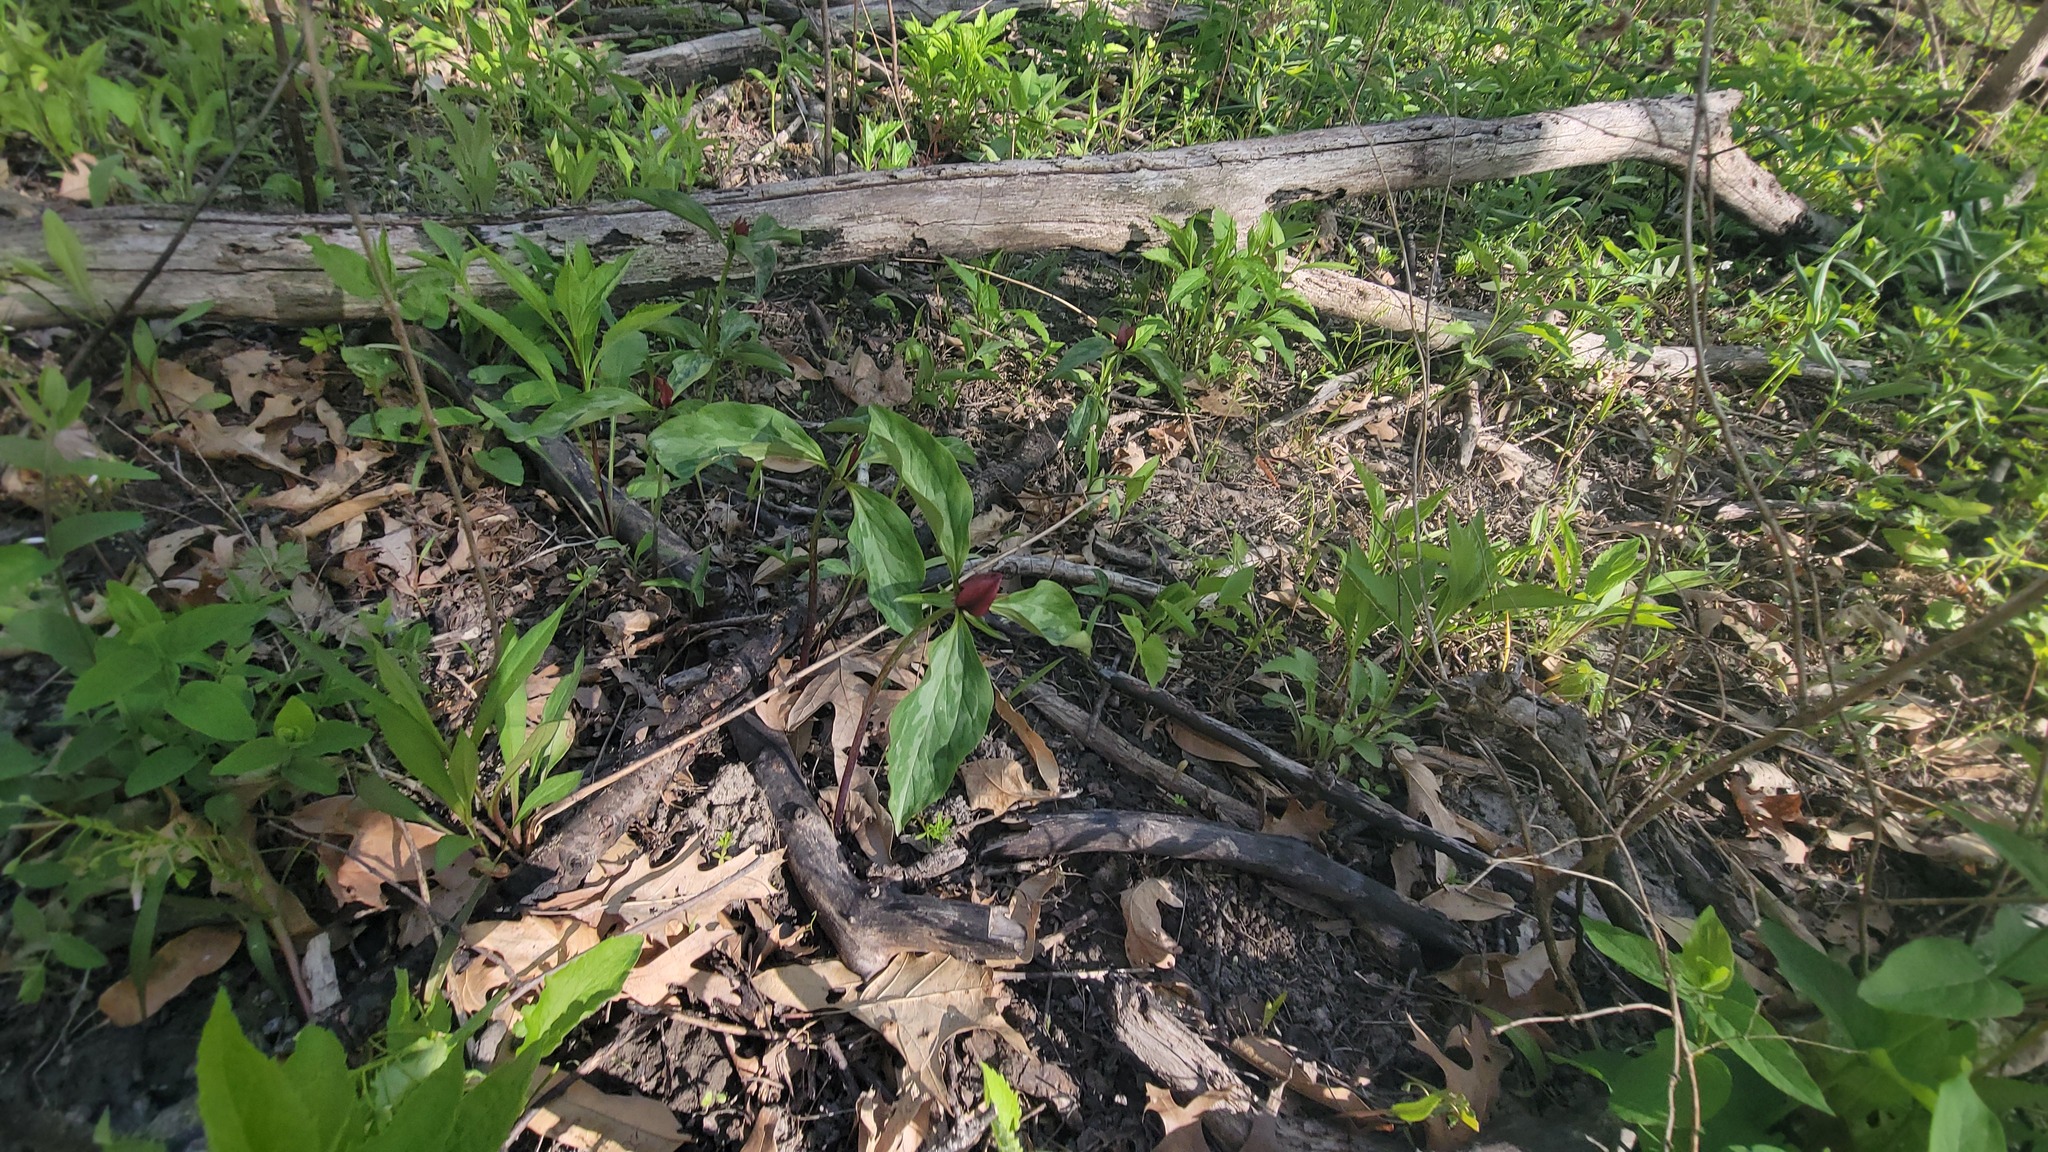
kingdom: Plantae
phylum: Tracheophyta
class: Liliopsida
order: Liliales
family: Melanthiaceae
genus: Trillium
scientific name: Trillium recurvatum
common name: Bloody butcher
